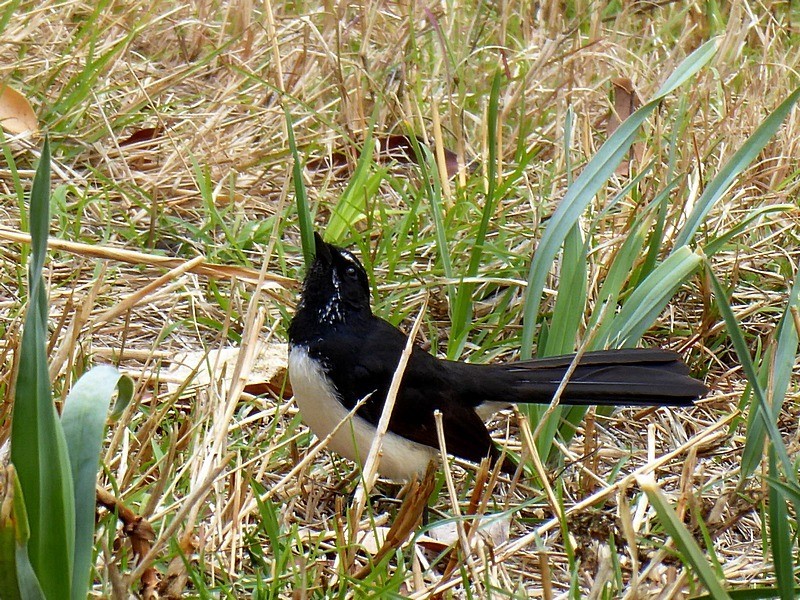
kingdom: Animalia
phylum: Chordata
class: Aves
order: Passeriformes
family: Rhipiduridae
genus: Rhipidura
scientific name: Rhipidura leucophrys
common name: Willie wagtail
